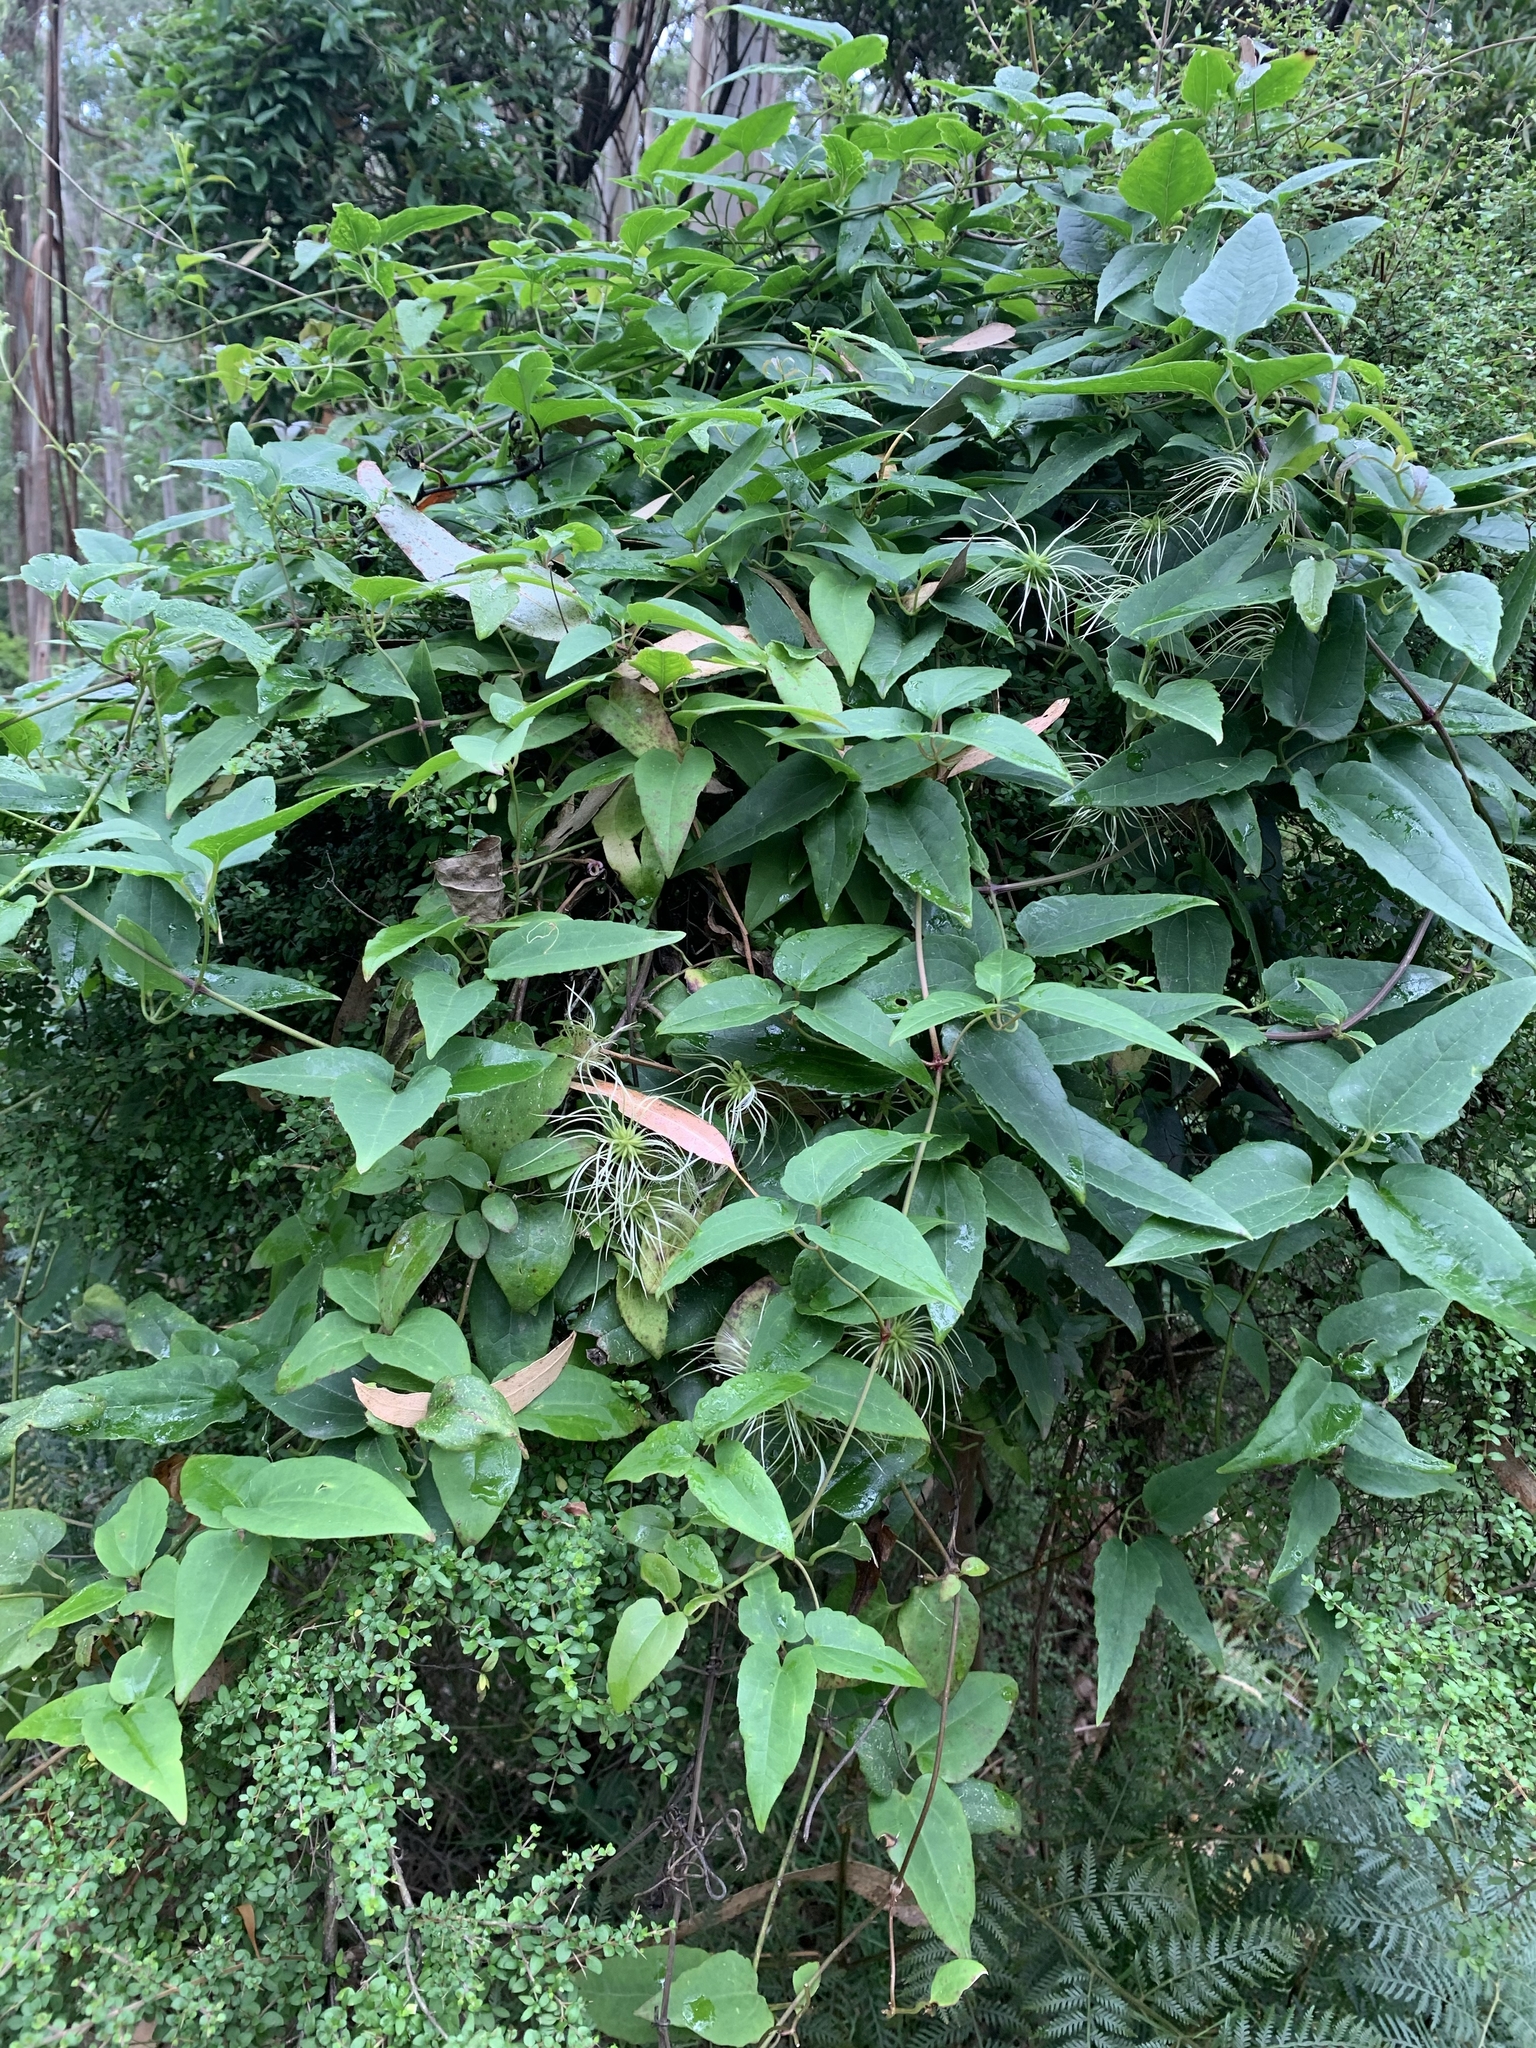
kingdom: Plantae
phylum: Tracheophyta
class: Magnoliopsida
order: Ranunculales
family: Ranunculaceae
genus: Clematis
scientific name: Clematis aristata
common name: Mountain clematis
